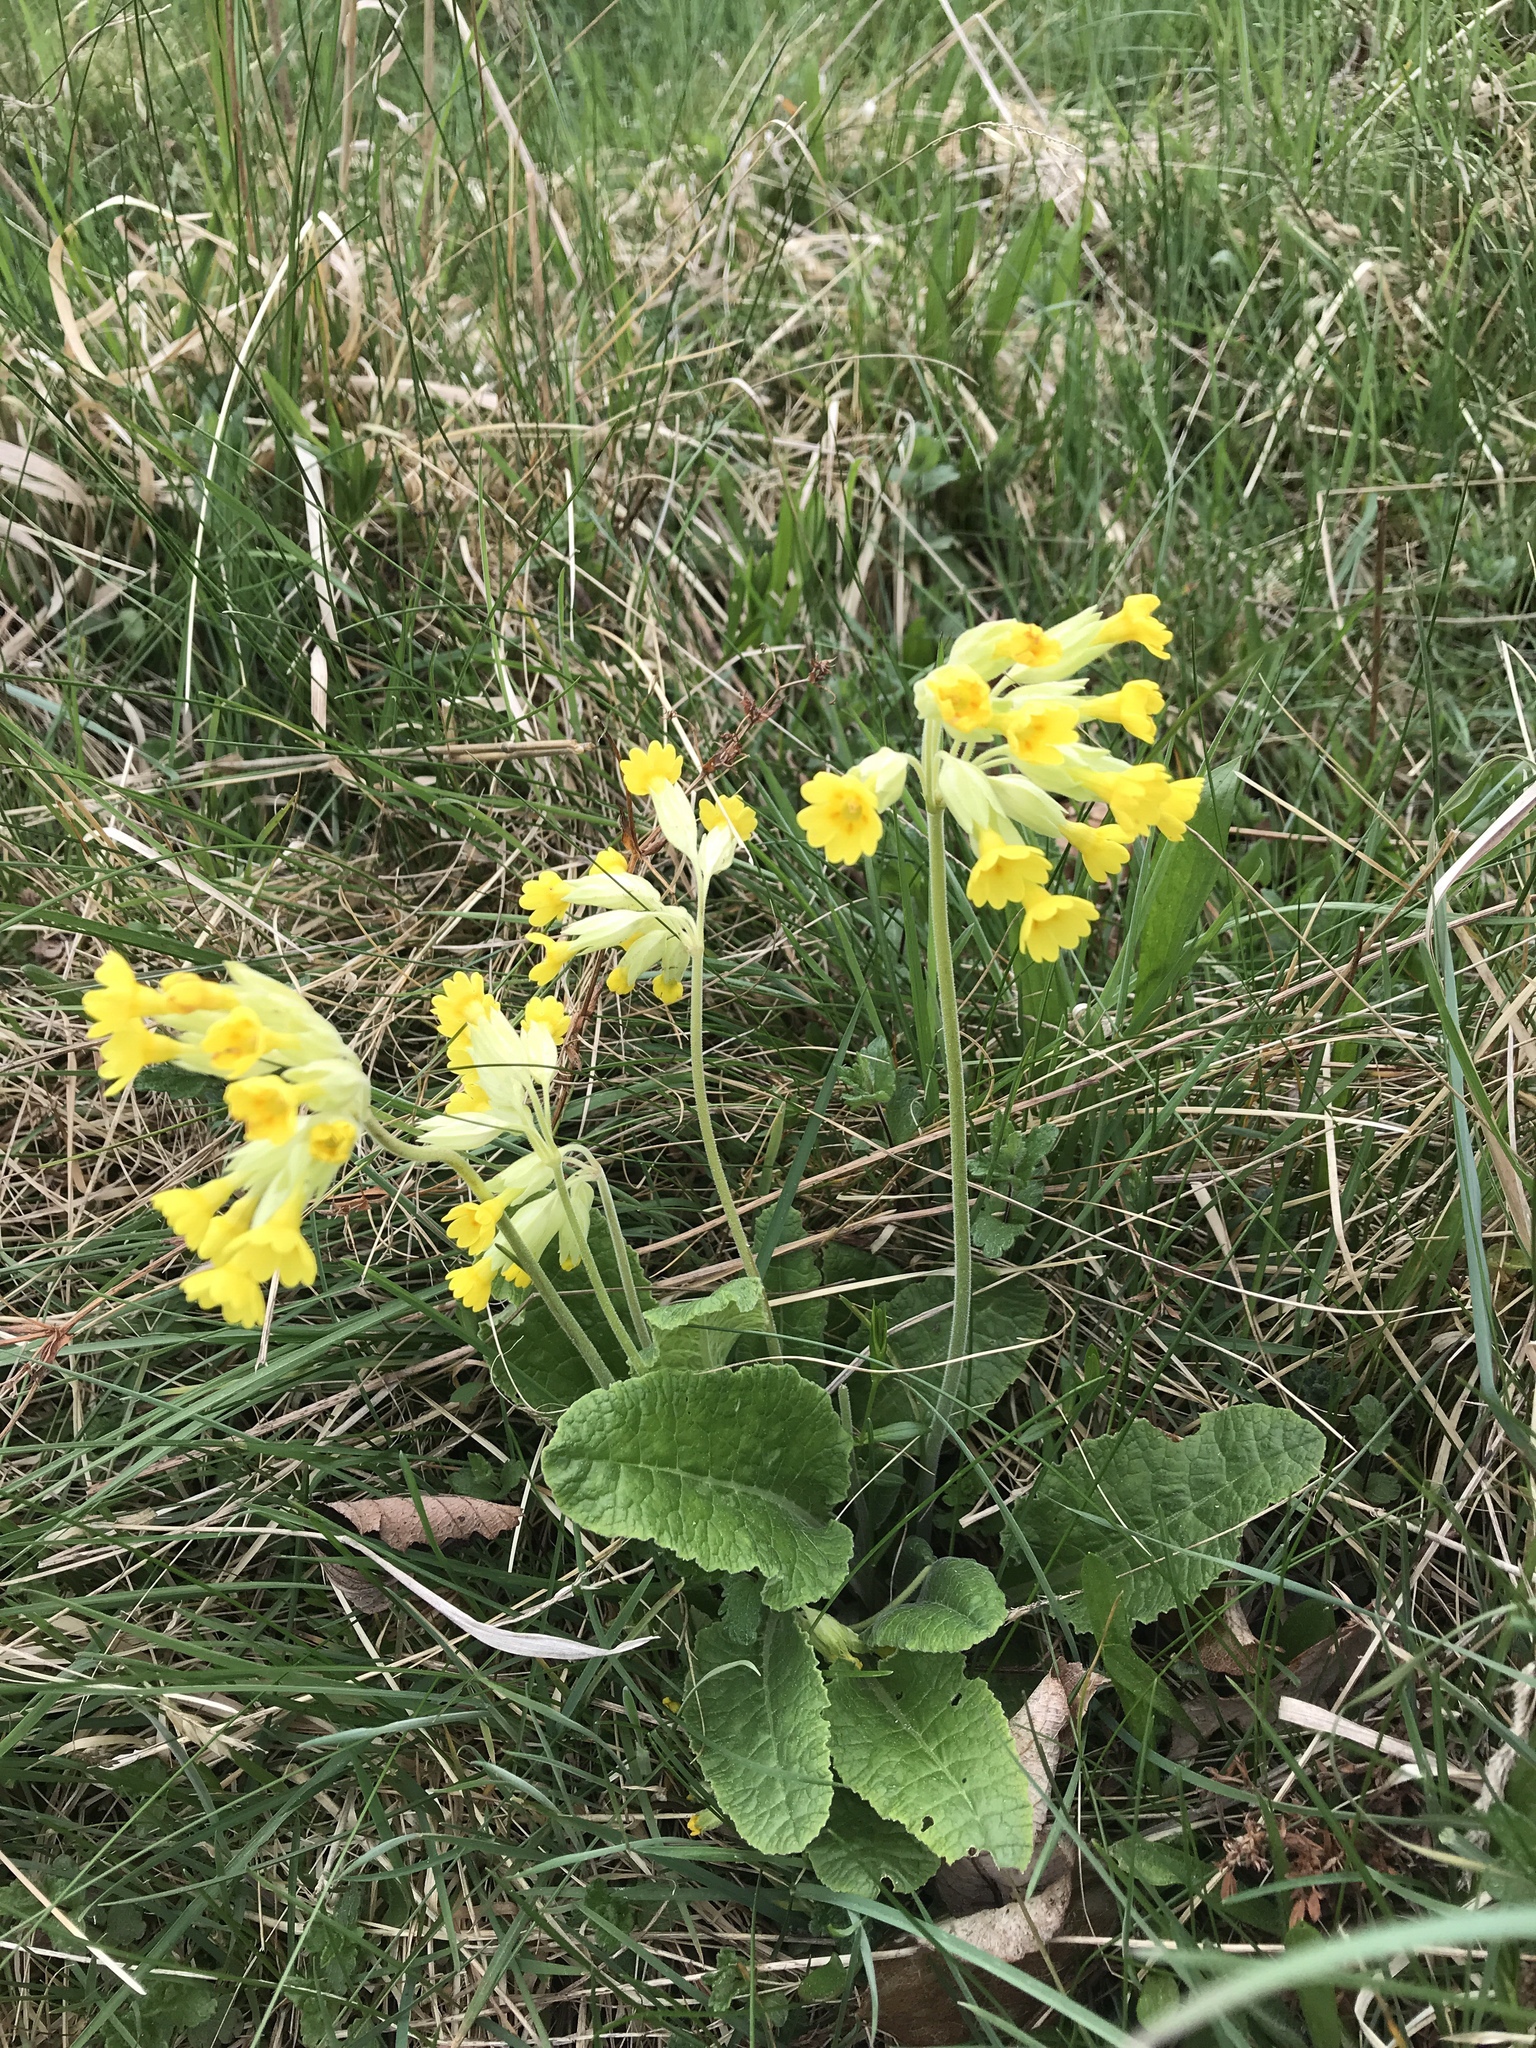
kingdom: Plantae
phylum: Tracheophyta
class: Magnoliopsida
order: Ericales
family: Primulaceae
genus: Primula
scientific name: Primula veris
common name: Cowslip
